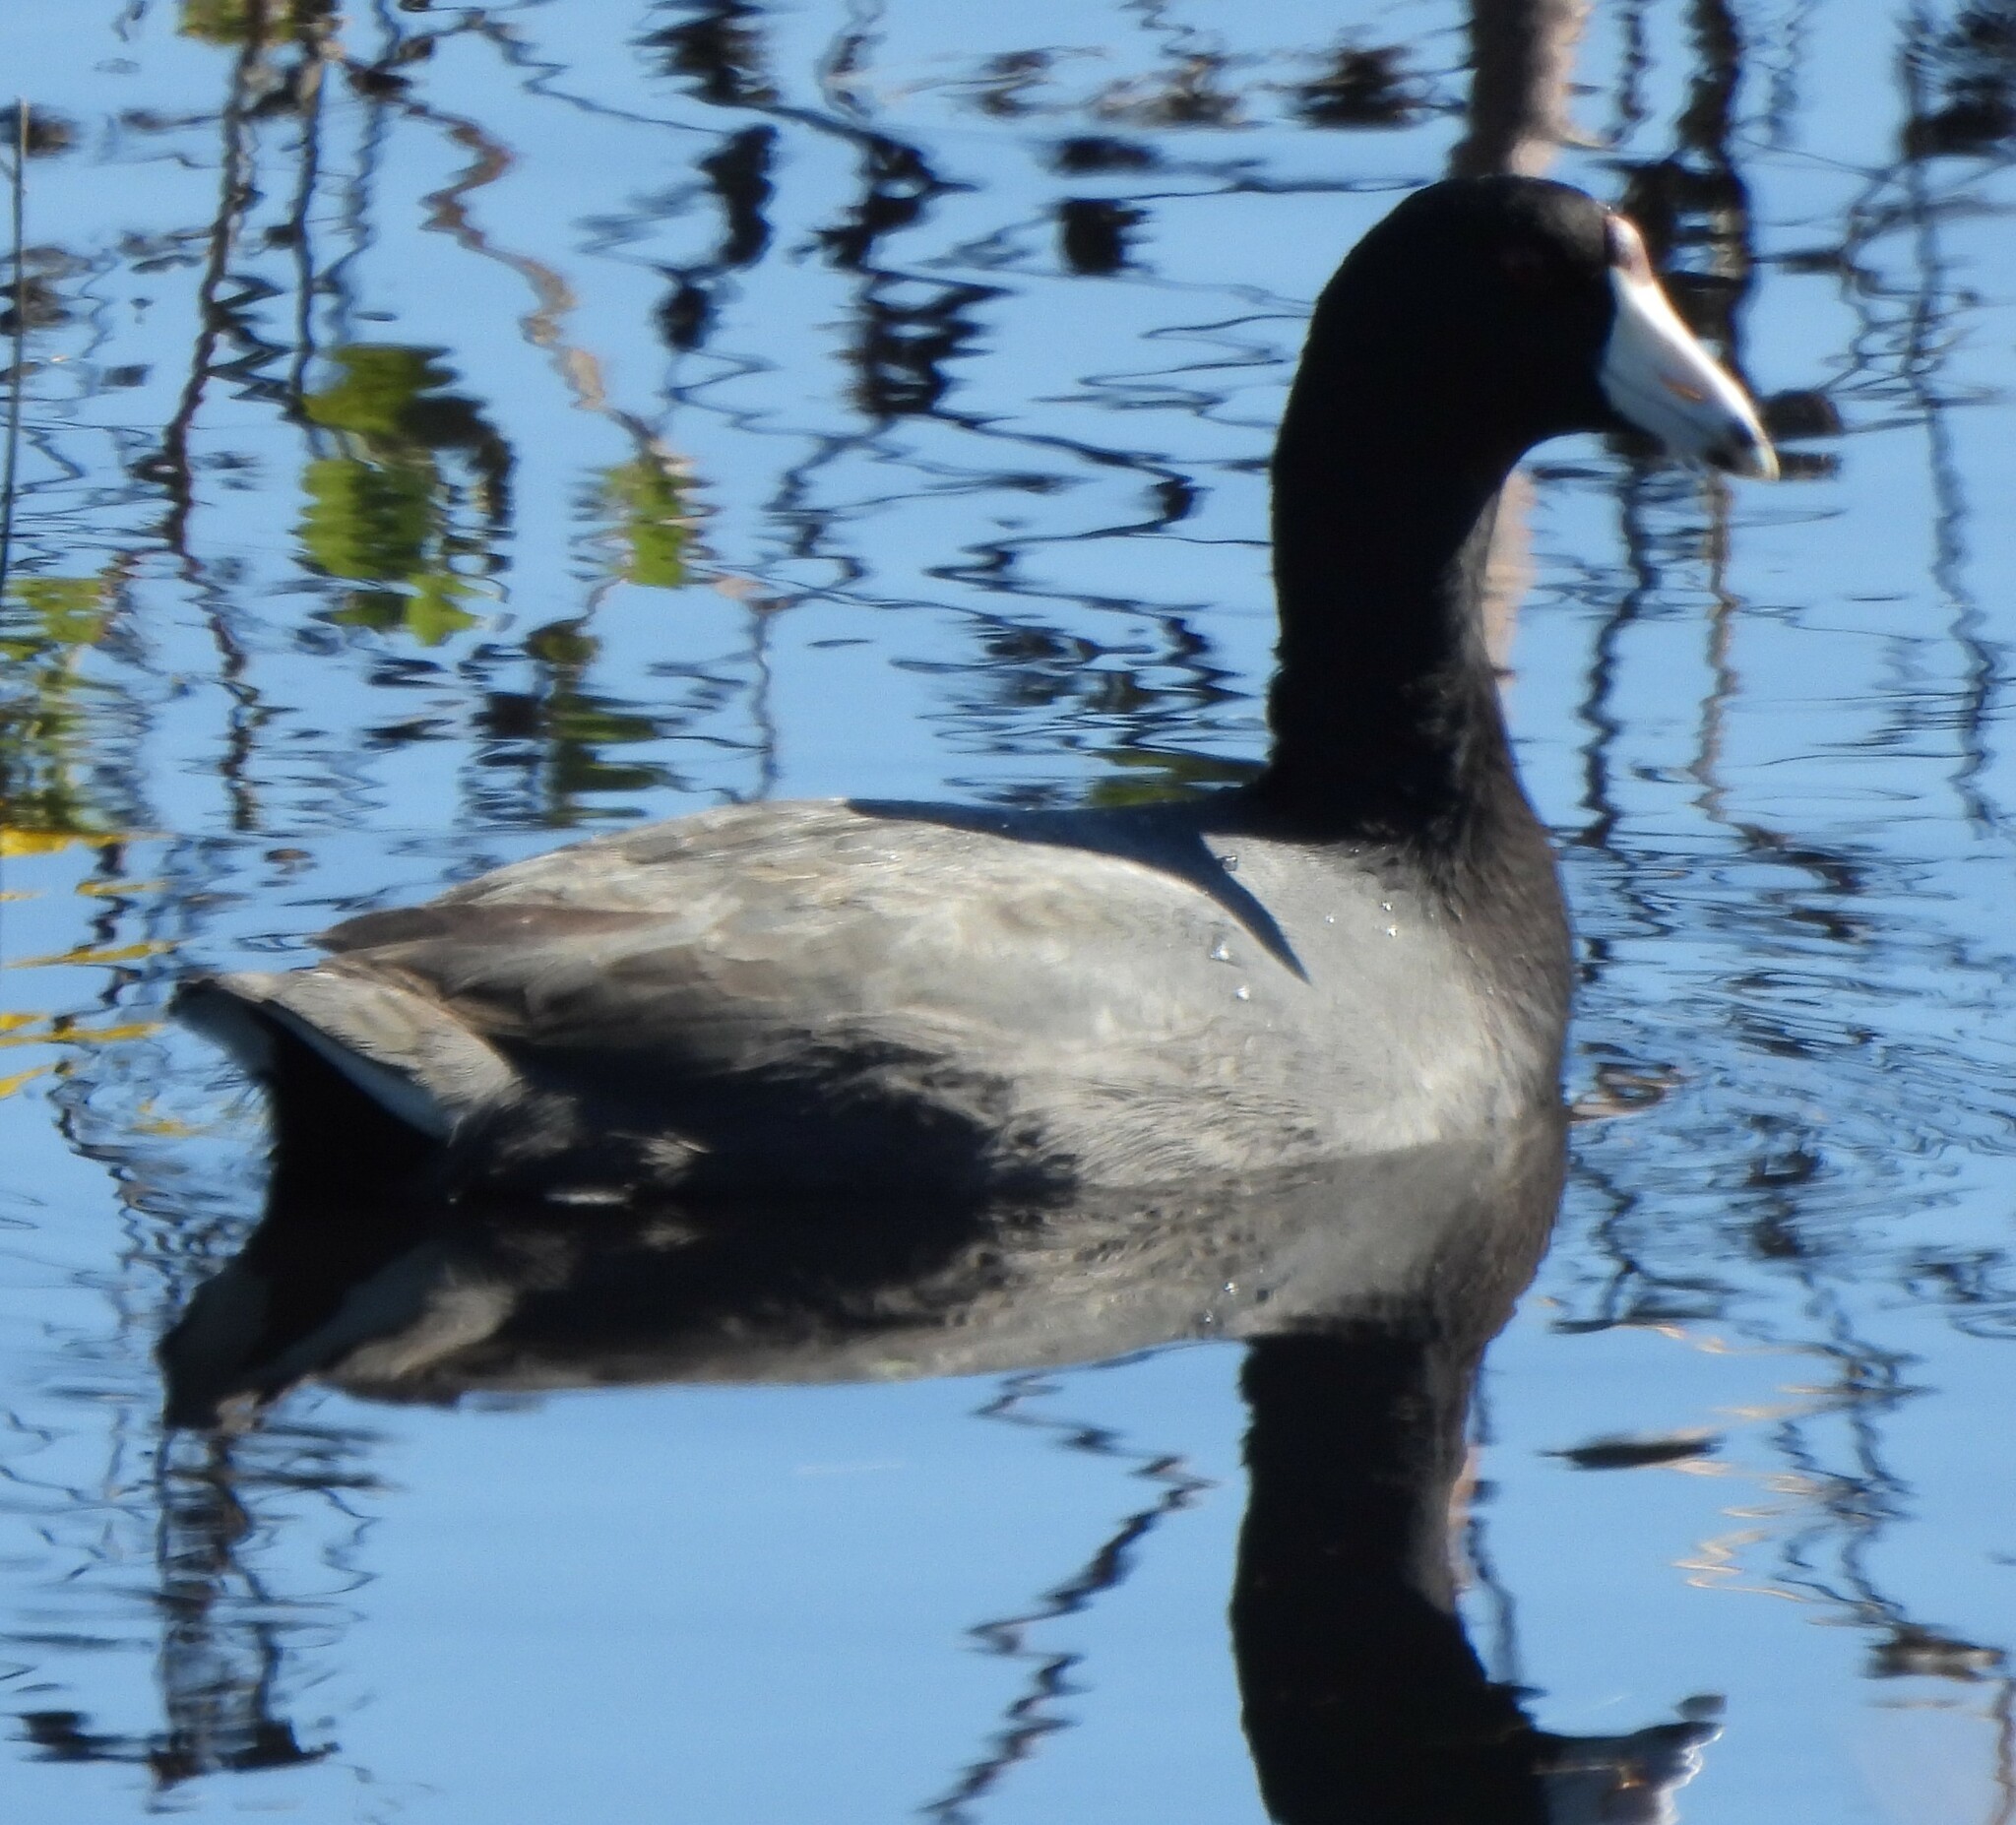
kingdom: Animalia
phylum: Chordata
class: Aves
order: Gruiformes
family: Rallidae
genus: Fulica
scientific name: Fulica americana
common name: American coot
